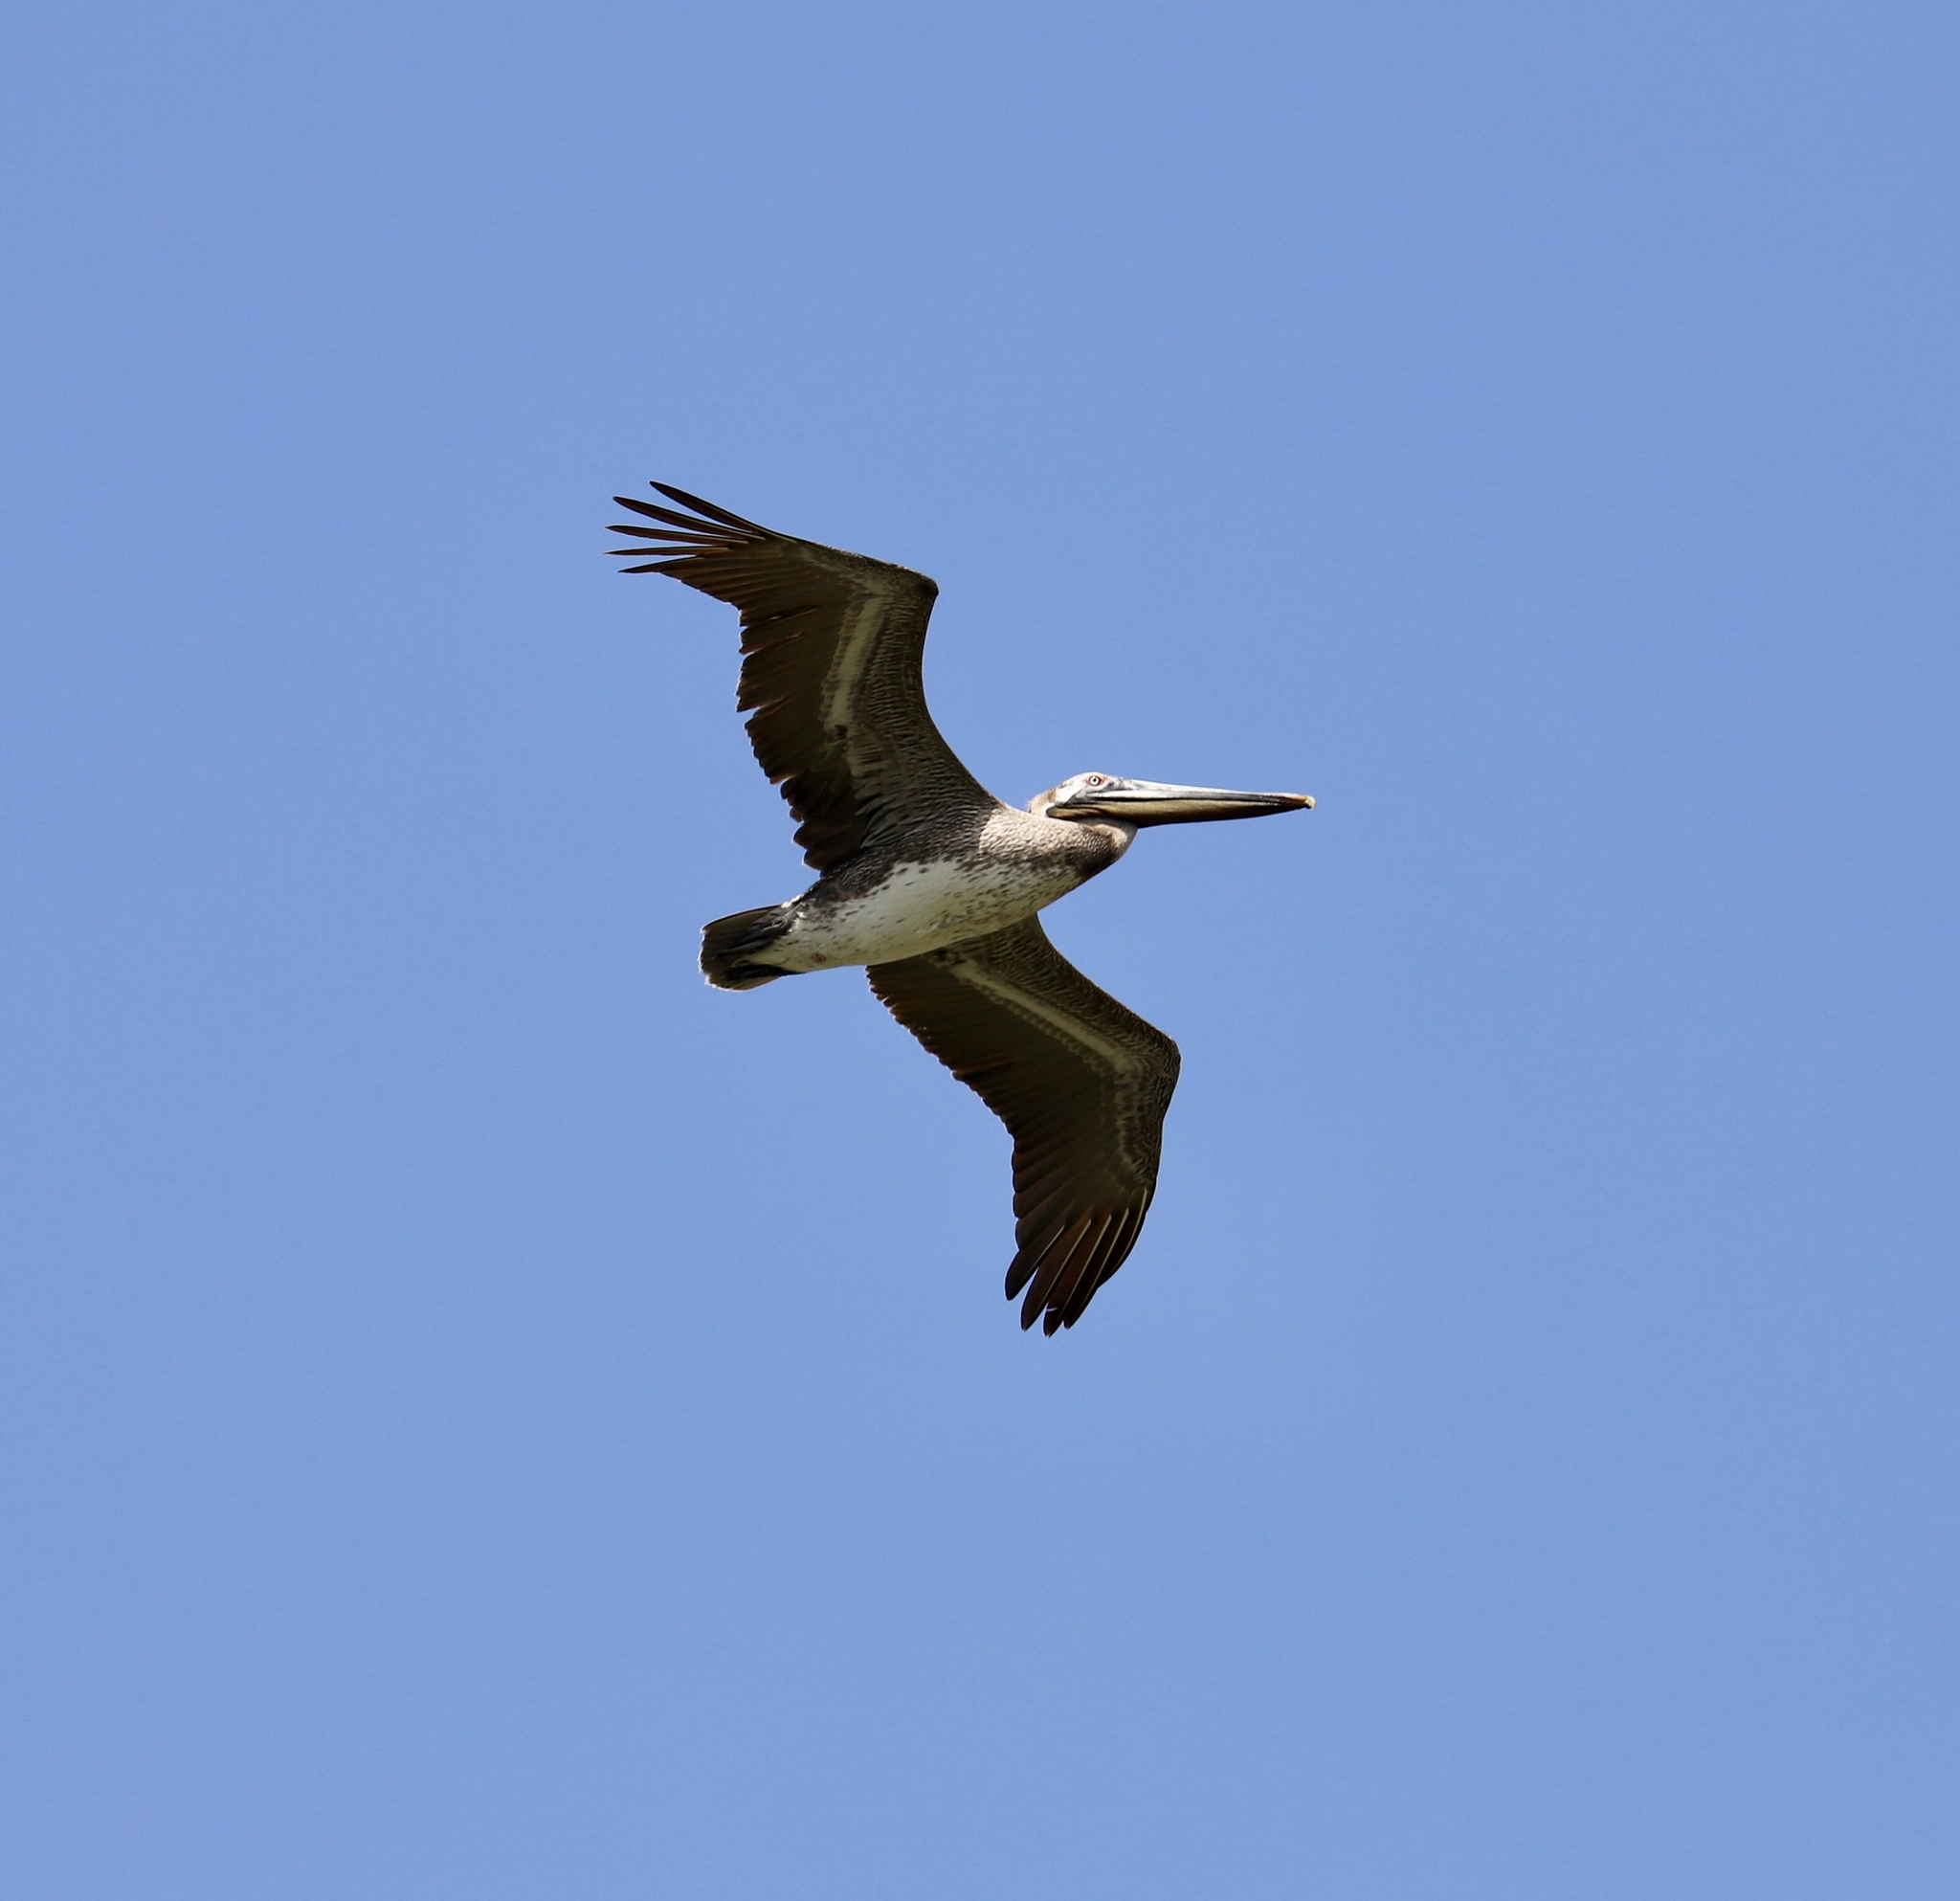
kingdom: Animalia
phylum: Chordata
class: Aves
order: Pelecaniformes
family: Pelecanidae
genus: Pelecanus
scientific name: Pelecanus occidentalis
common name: Brown pelican
